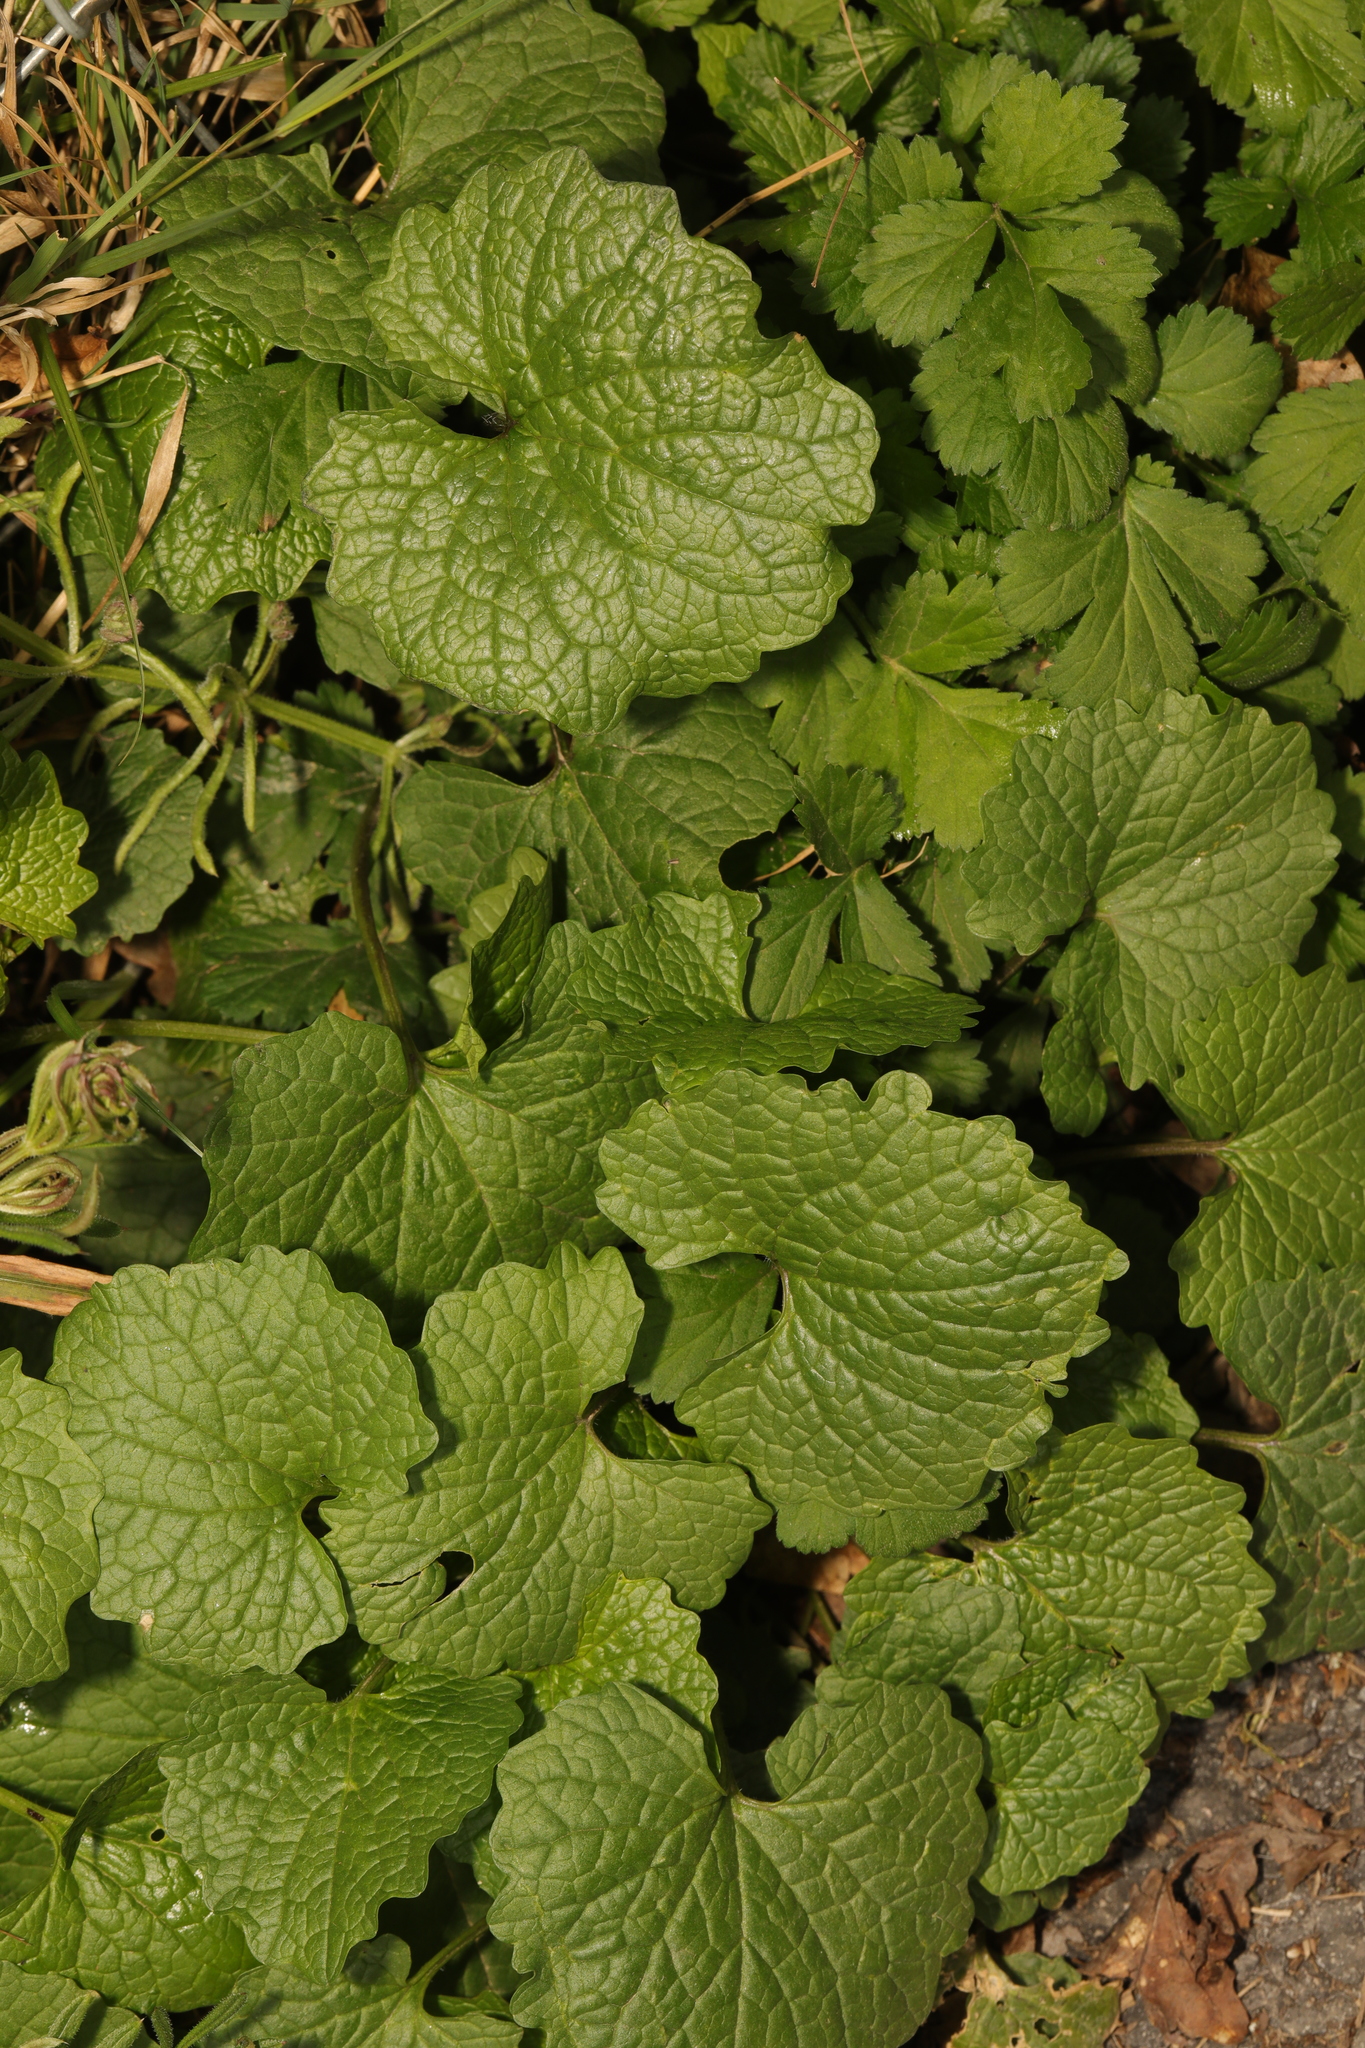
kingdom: Plantae
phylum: Tracheophyta
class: Magnoliopsida
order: Brassicales
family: Brassicaceae
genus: Alliaria
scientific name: Alliaria petiolata
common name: Garlic mustard
